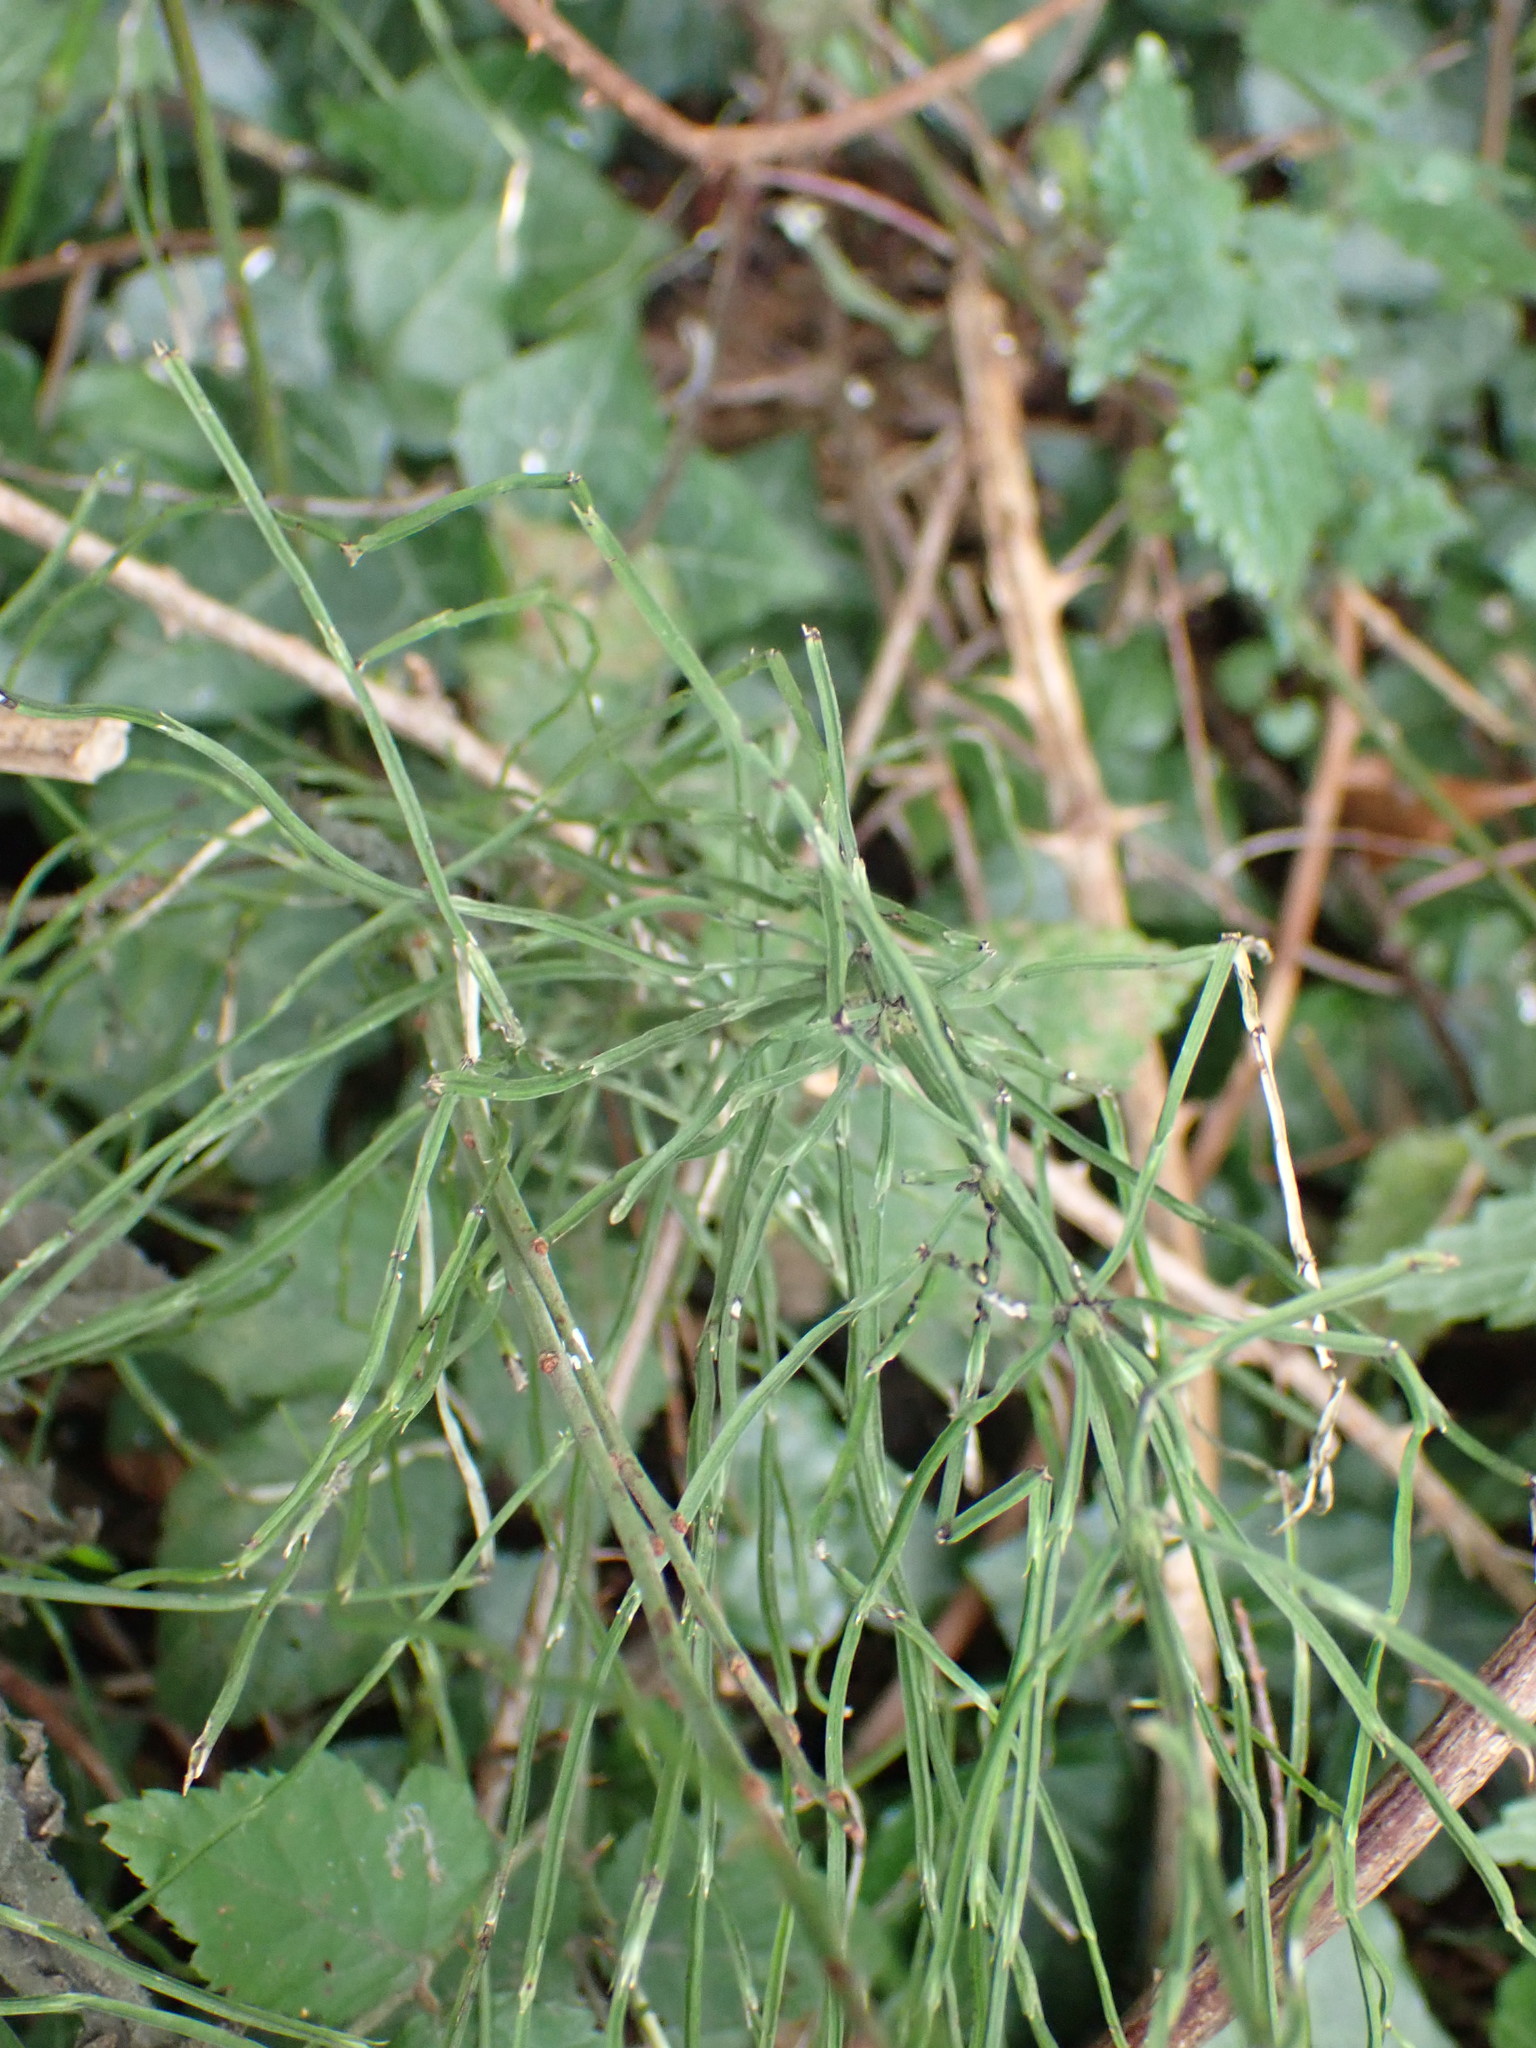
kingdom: Plantae
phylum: Tracheophyta
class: Polypodiopsida
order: Equisetales
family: Equisetaceae
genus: Equisetum
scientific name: Equisetum arvense
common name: Field horsetail
